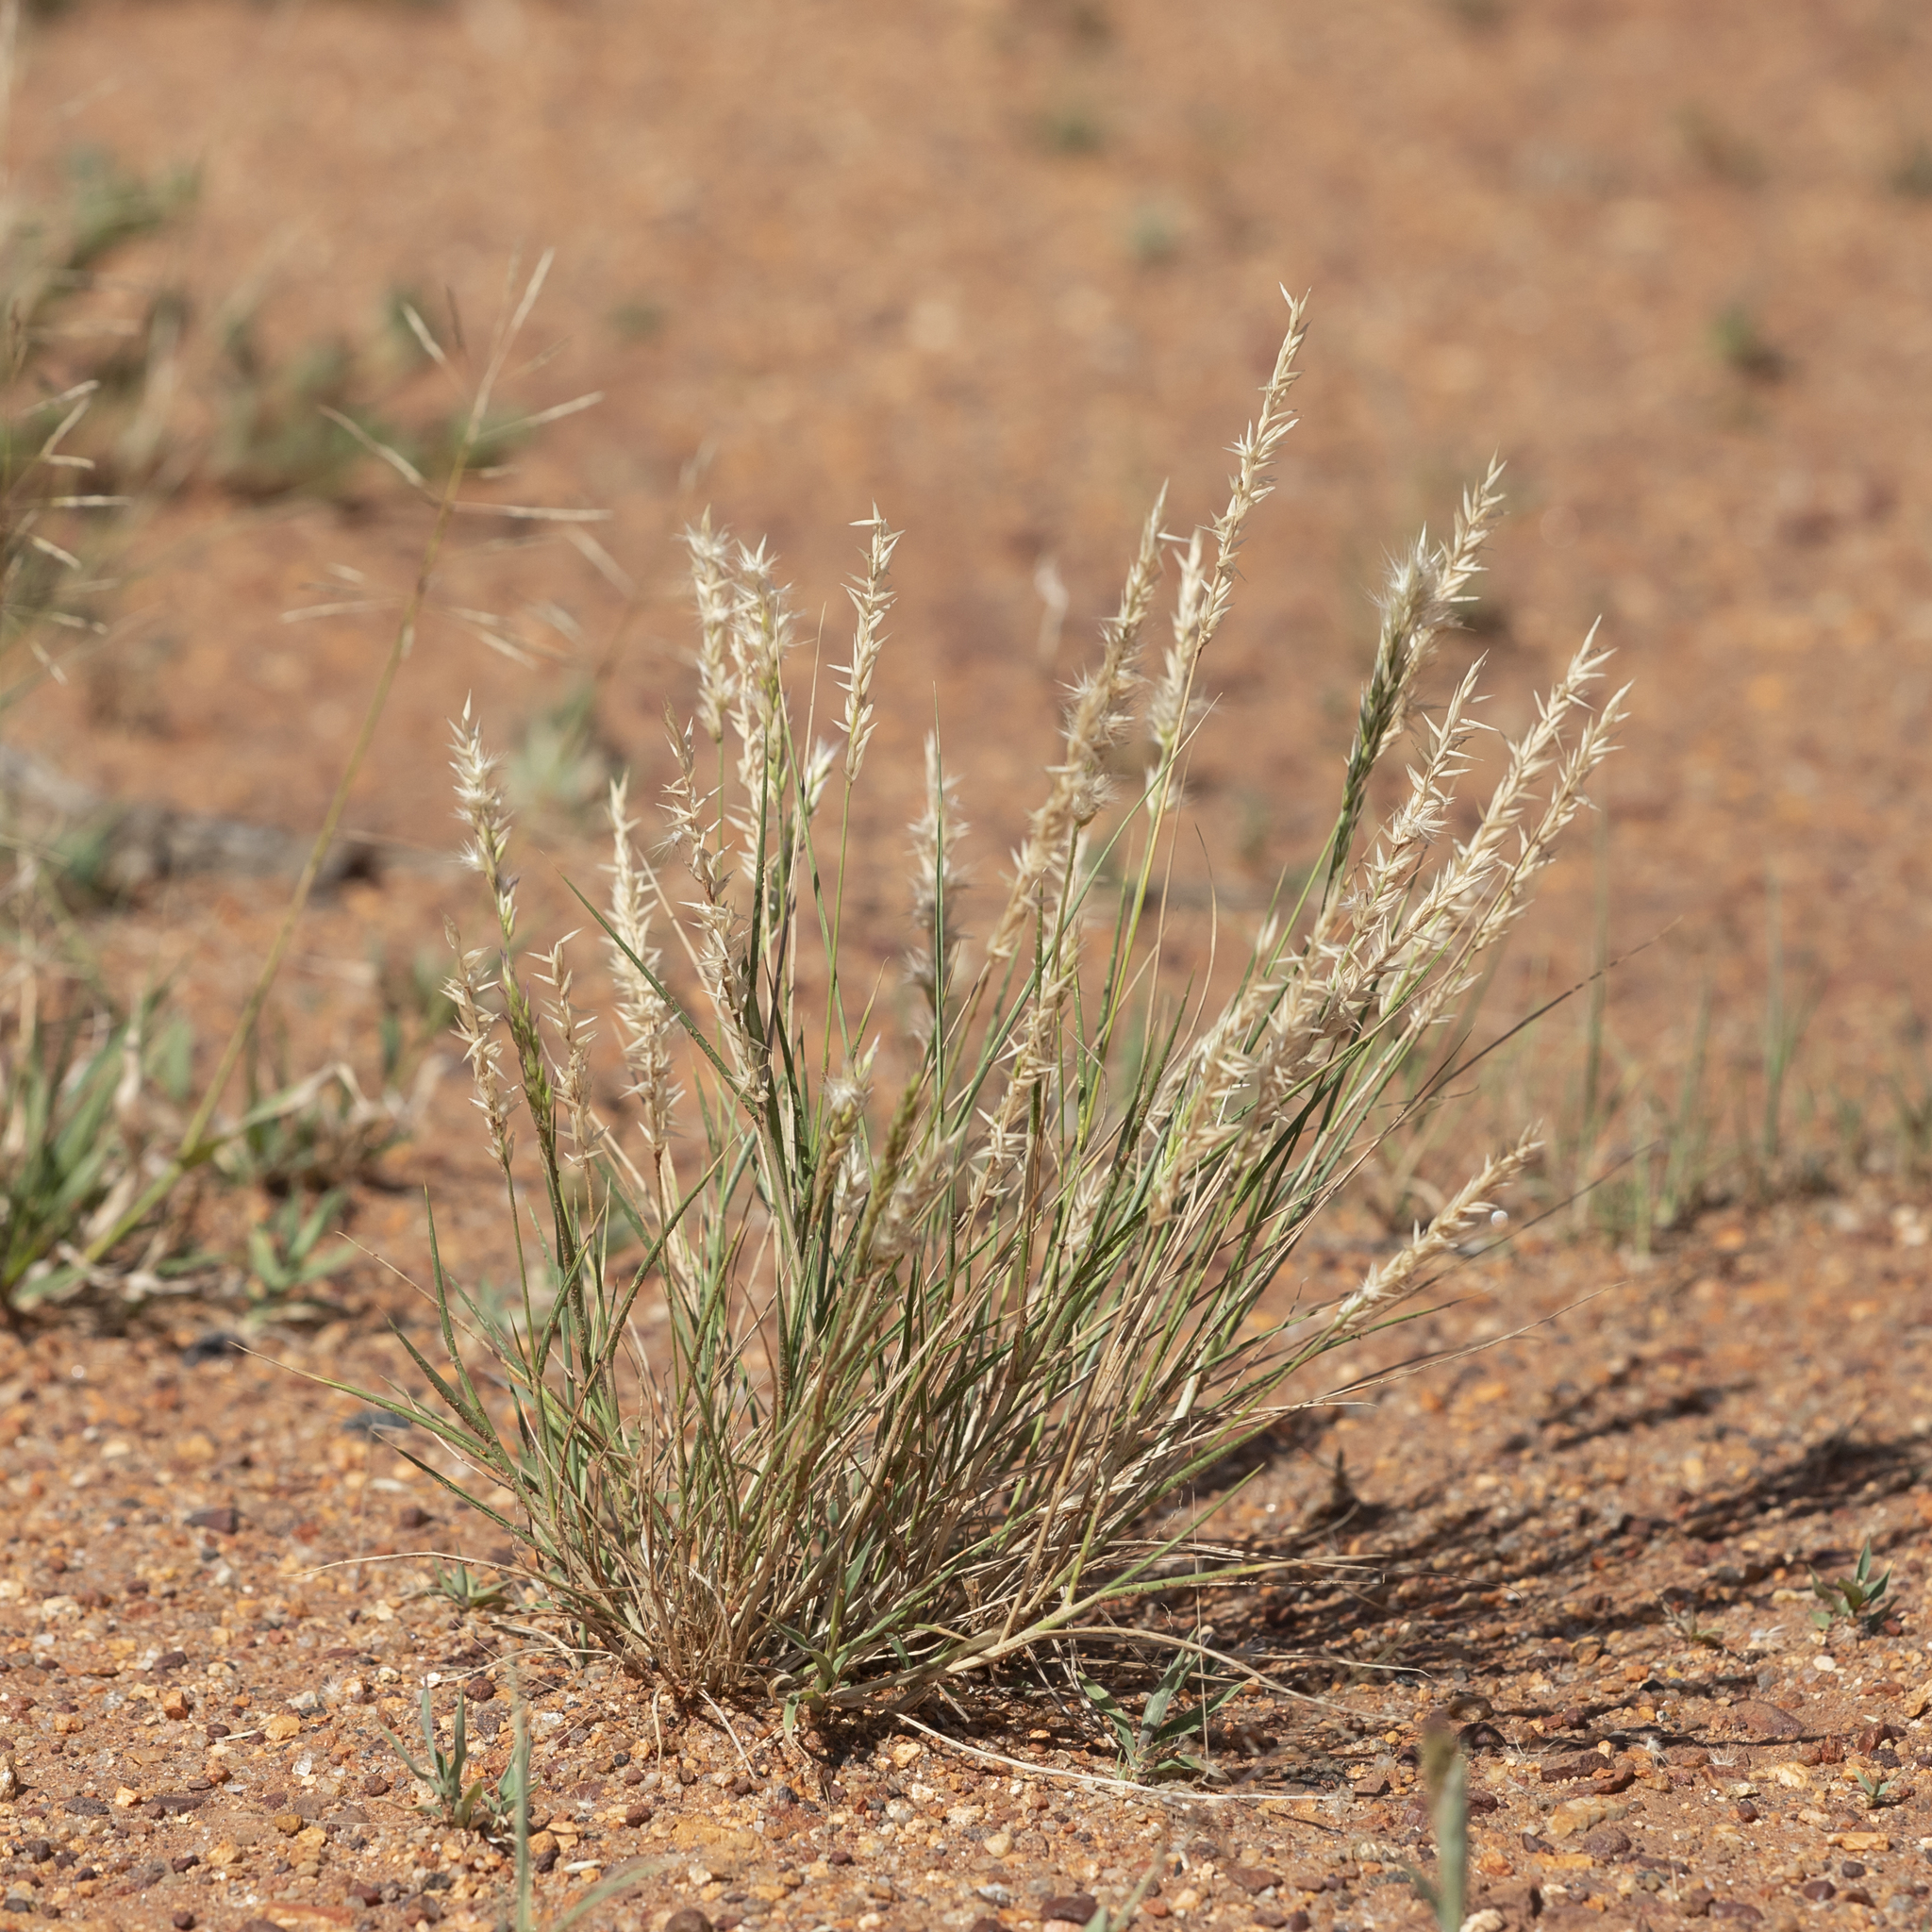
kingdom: Plantae
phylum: Tracheophyta
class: Liliopsida
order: Poales
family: Poaceae
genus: Enneapogon
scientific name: Enneapogon polyphyllus
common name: Leafy nineawn
